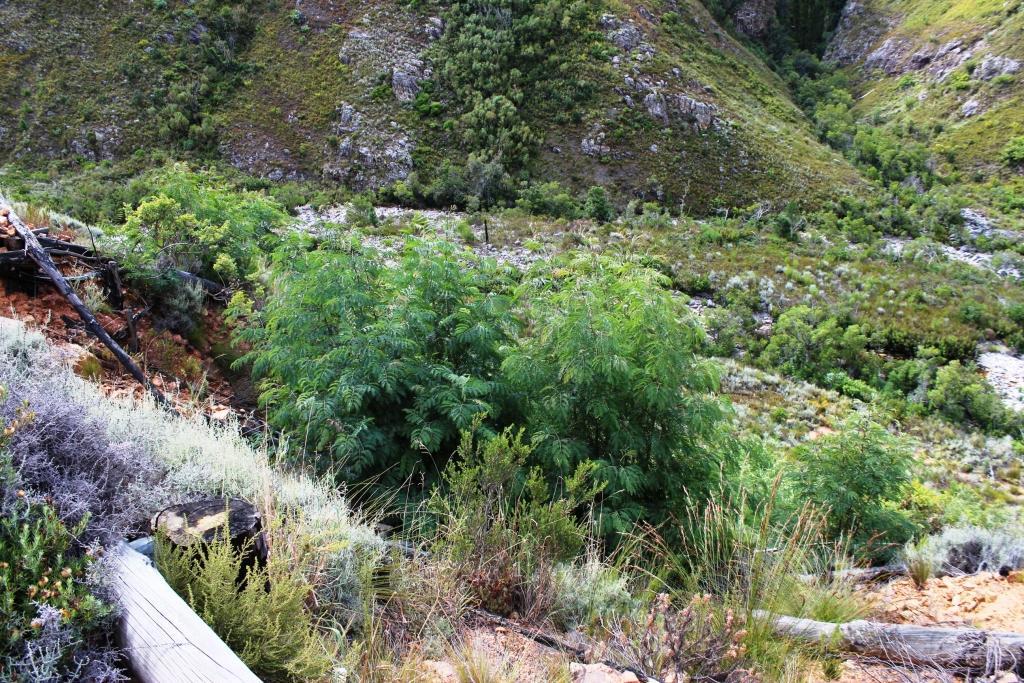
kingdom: Plantae
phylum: Tracheophyta
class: Magnoliopsida
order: Fabales
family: Fabaceae
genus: Acacia
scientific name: Acacia elata
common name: Cedar wattle
